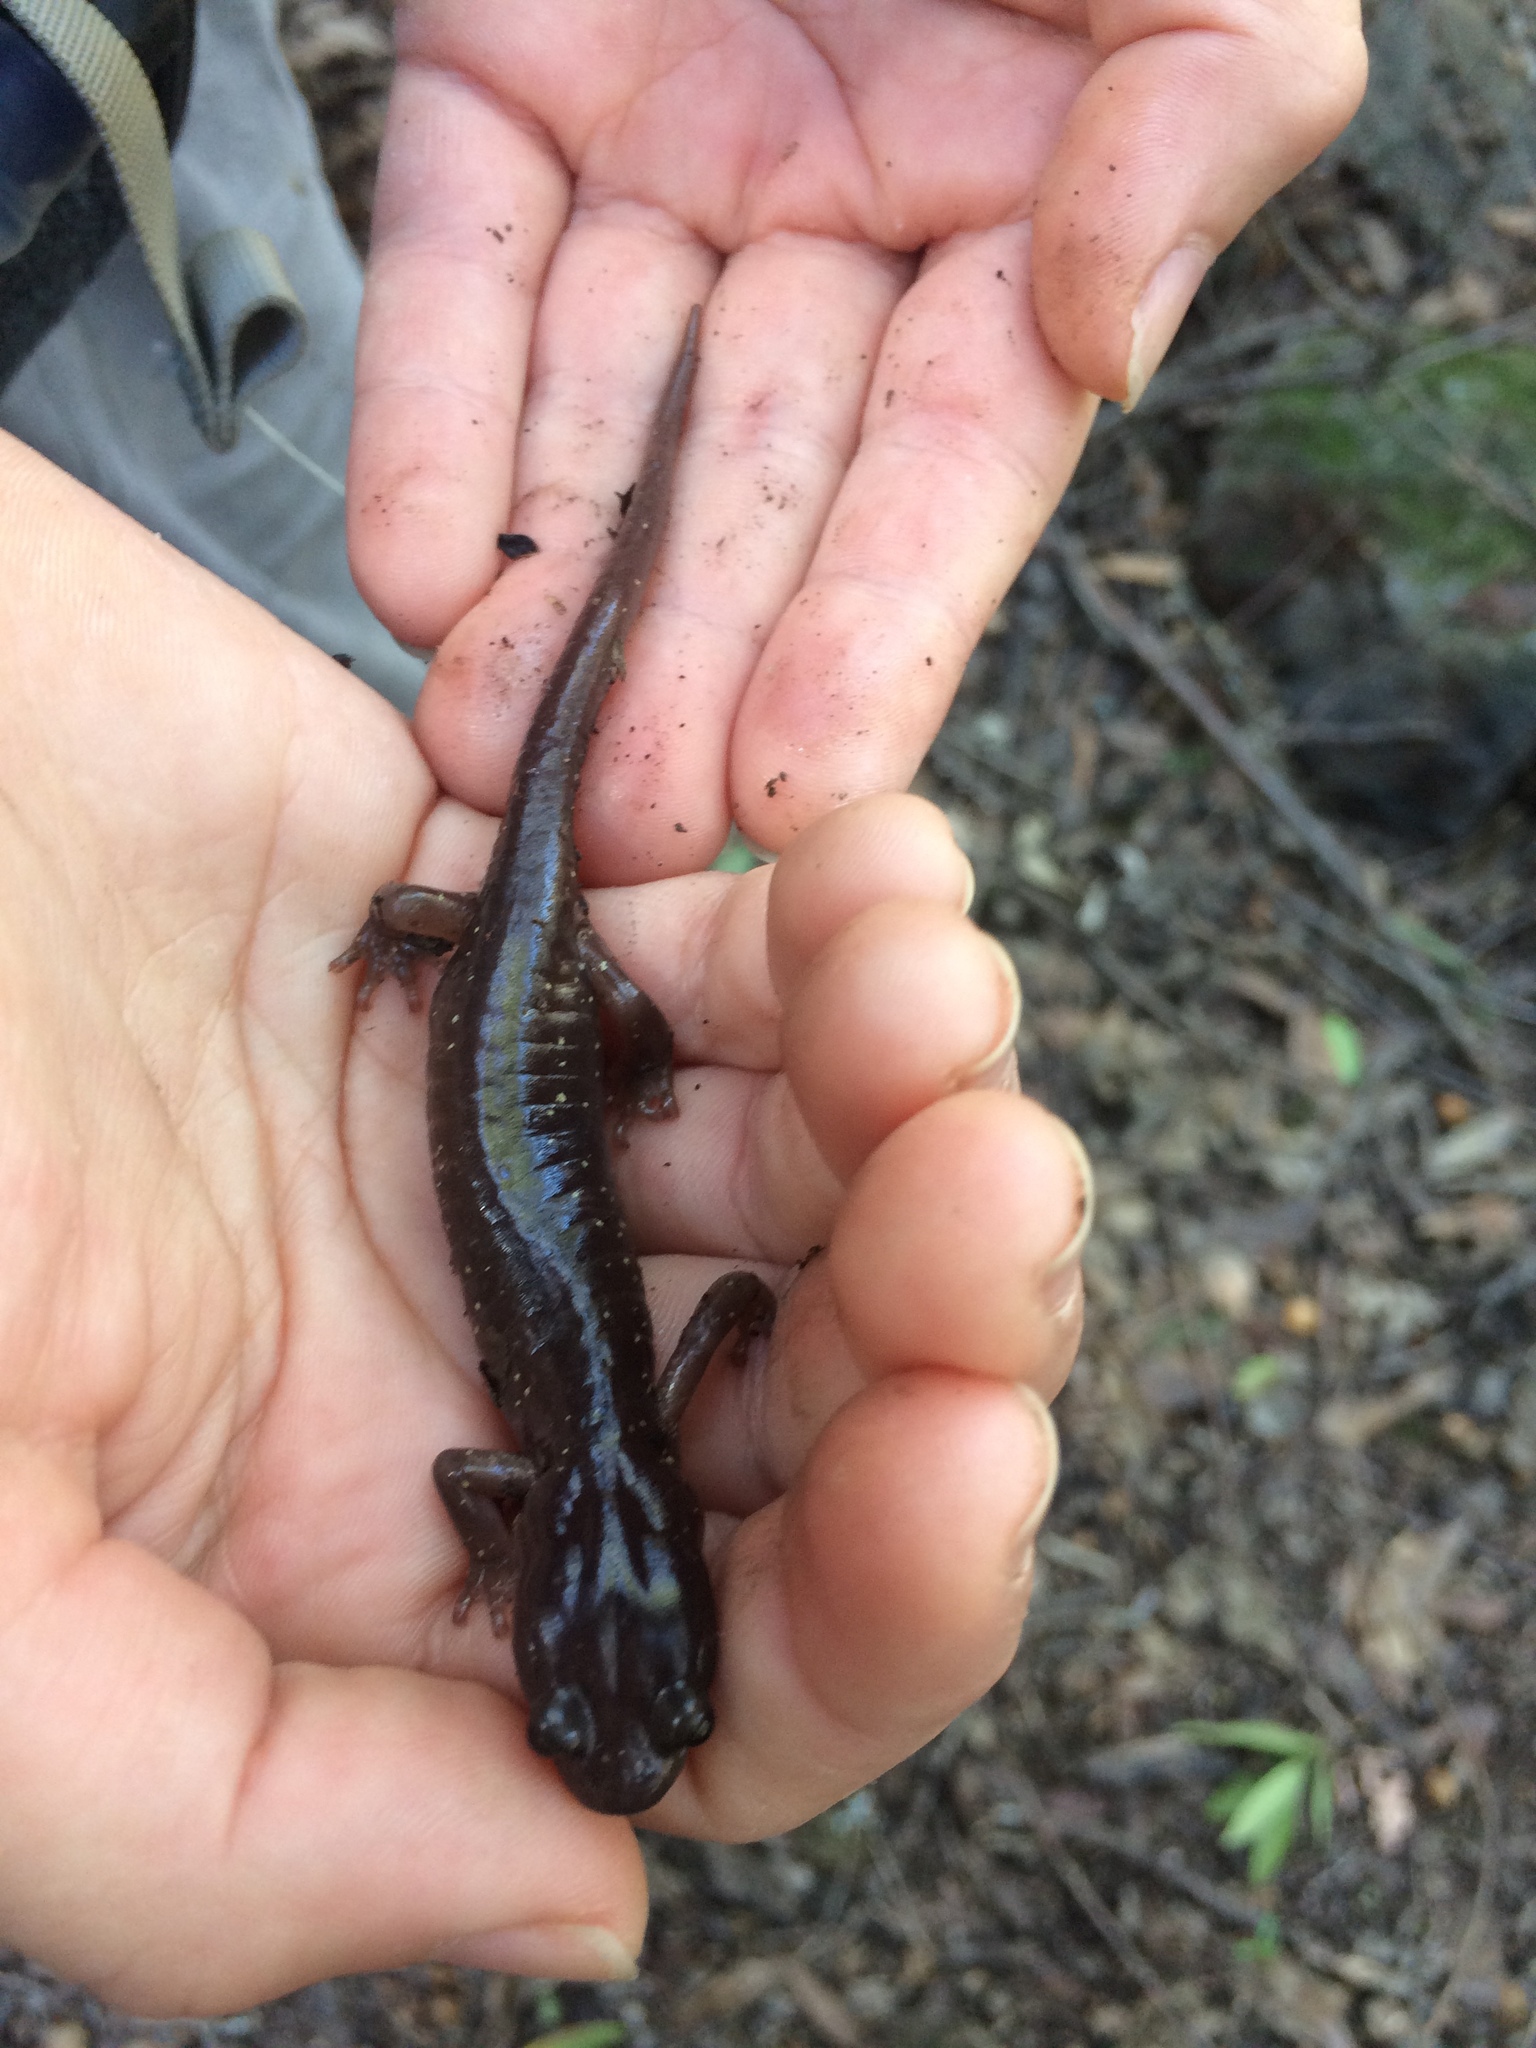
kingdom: Animalia
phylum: Chordata
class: Amphibia
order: Caudata
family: Plethodontidae
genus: Aneides
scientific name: Aneides lugubris
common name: Arboreal salamander
